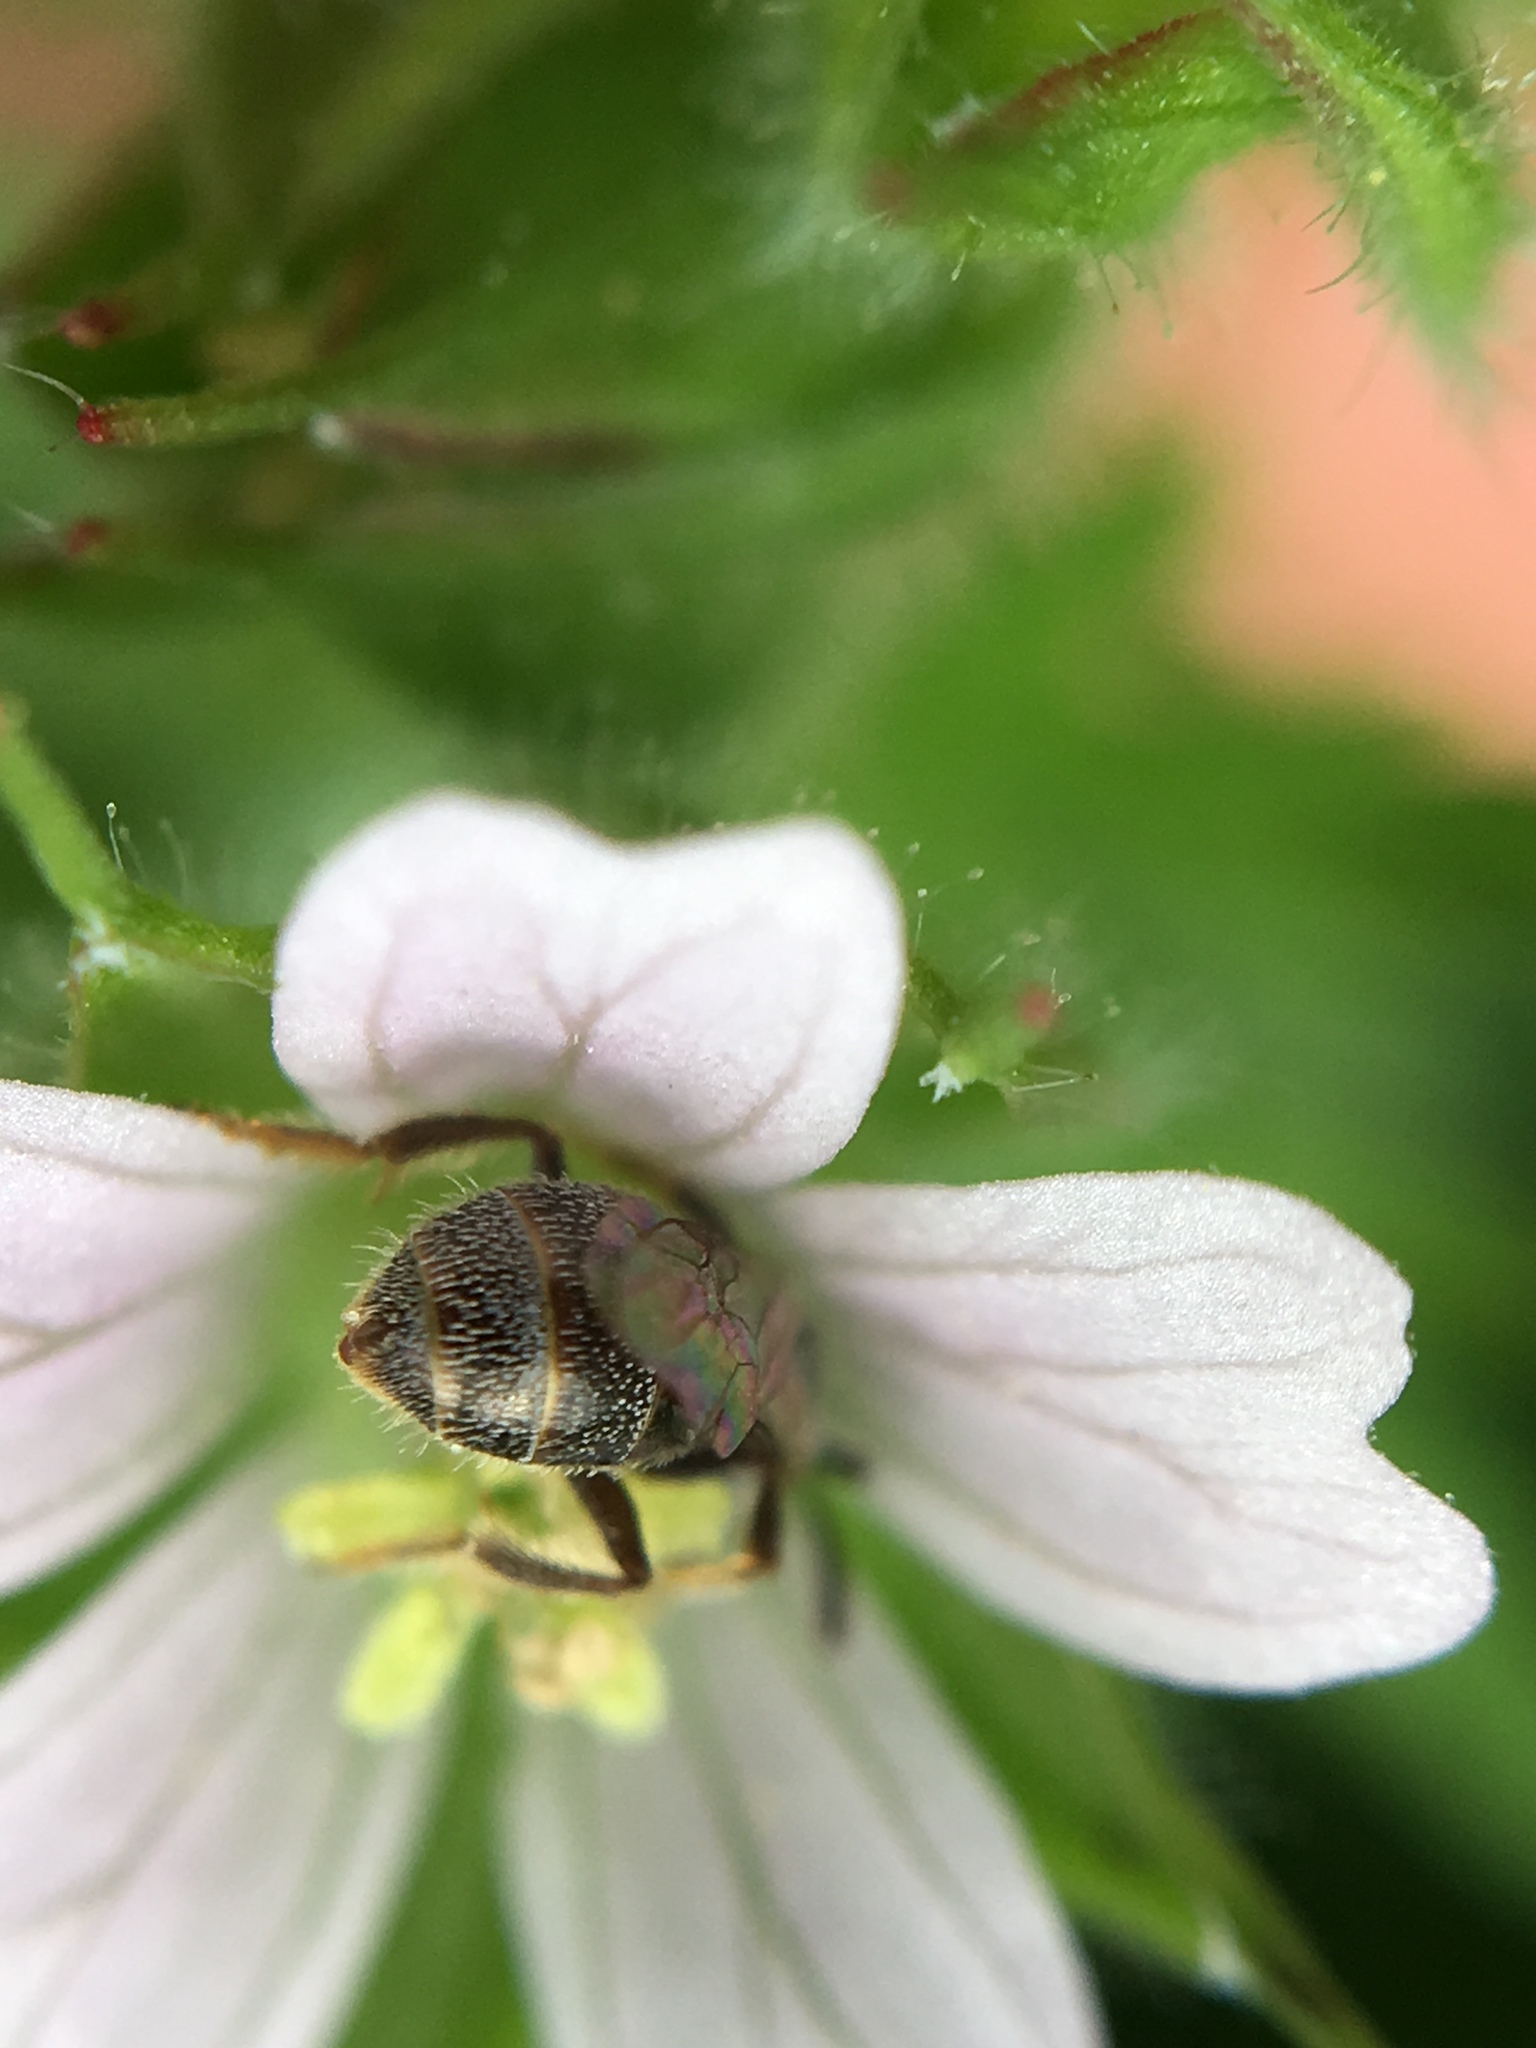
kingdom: Animalia
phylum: Arthropoda
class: Insecta
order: Hymenoptera
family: Halictidae
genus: Lasioglossum
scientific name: Lasioglossum imitatum
